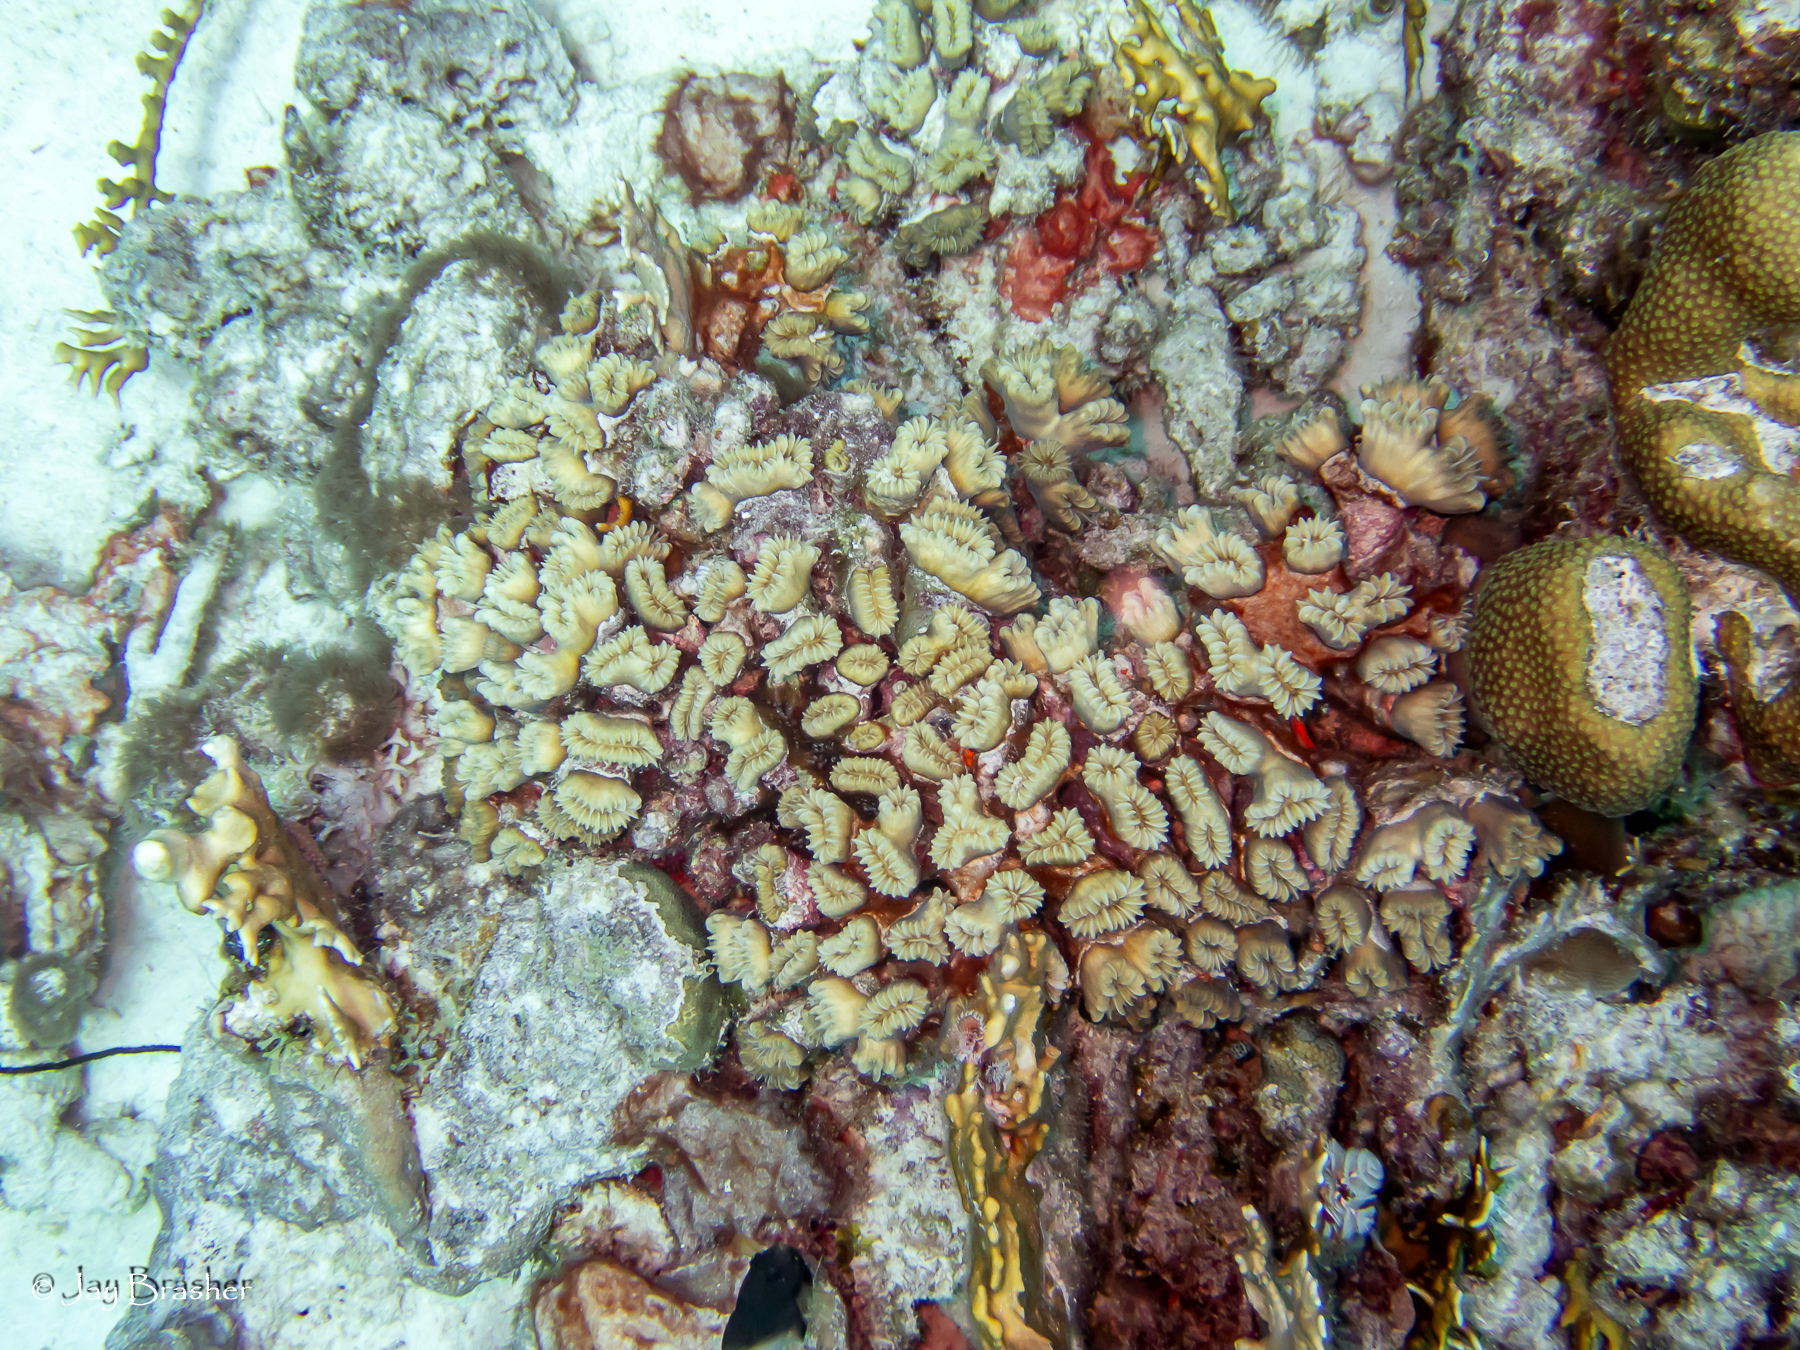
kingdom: Animalia
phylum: Cnidaria
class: Anthozoa
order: Scleractinia
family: Meandrinidae
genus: Eusmilia
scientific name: Eusmilia fastigiata
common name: Smooth flower coral
